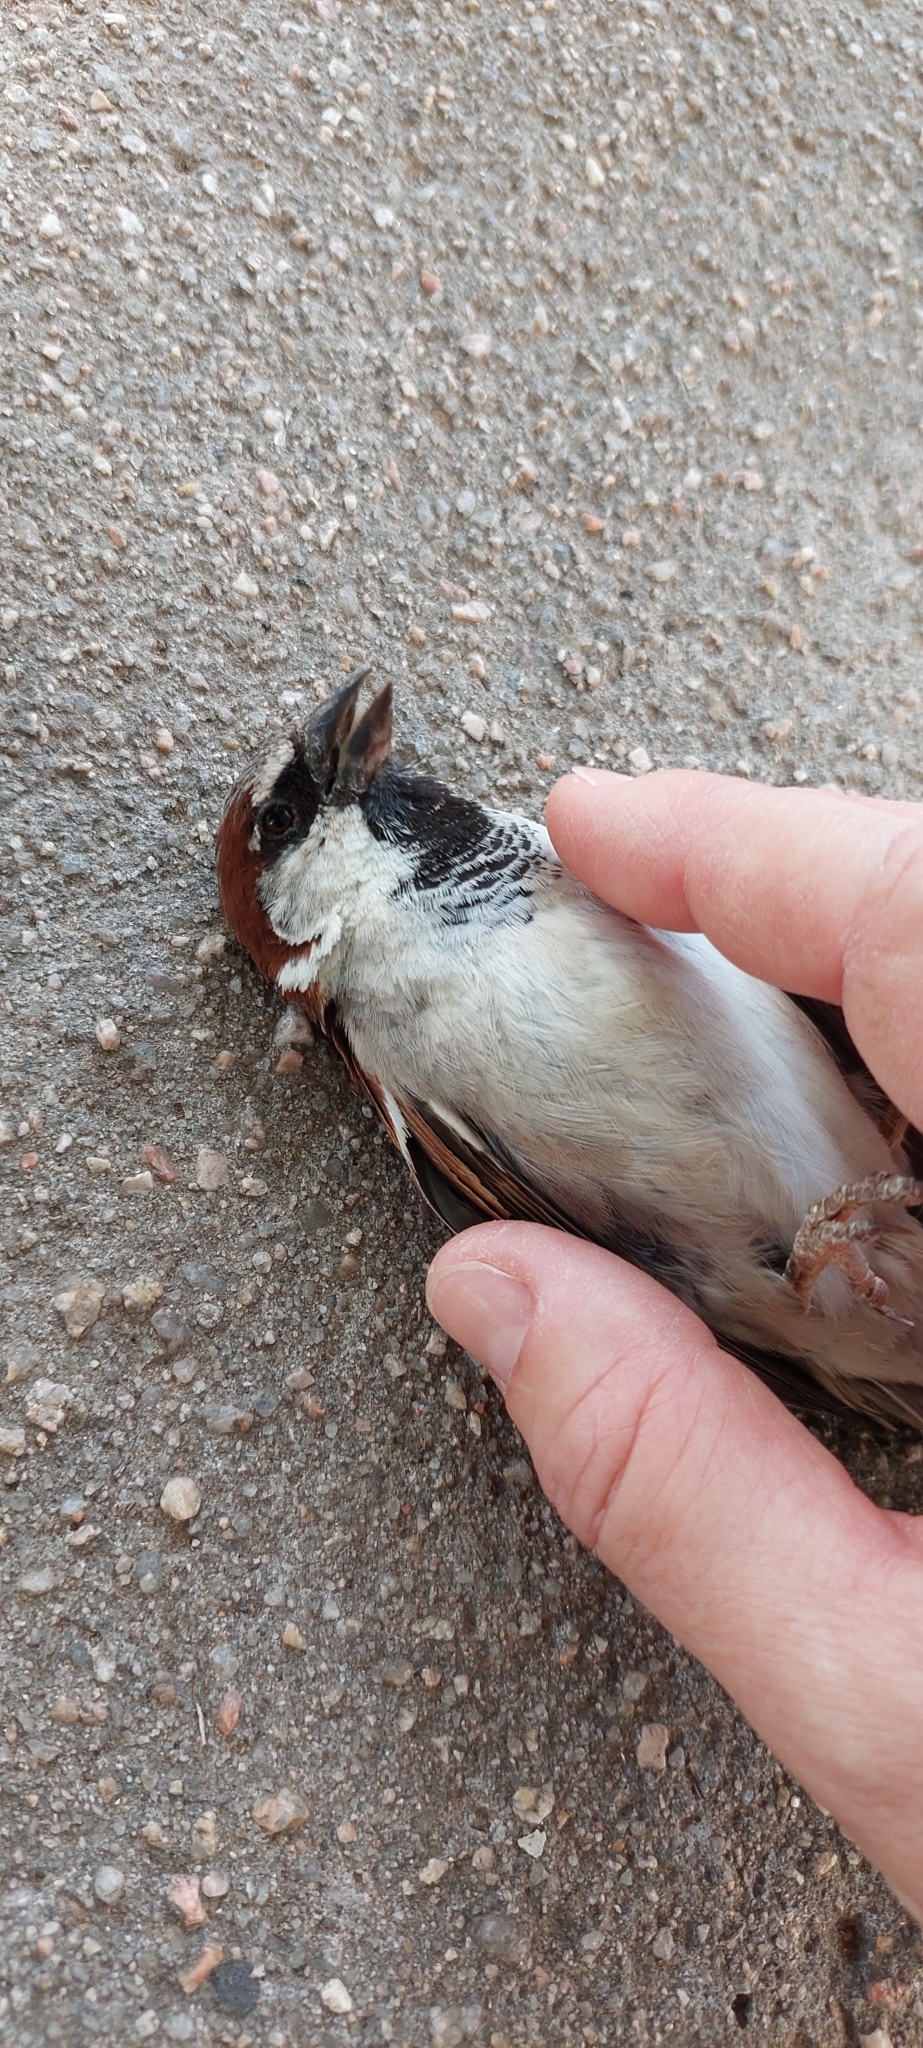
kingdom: Animalia
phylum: Chordata
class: Aves
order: Passeriformes
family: Passeridae
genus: Passer
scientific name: Passer domesticus
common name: House sparrow
